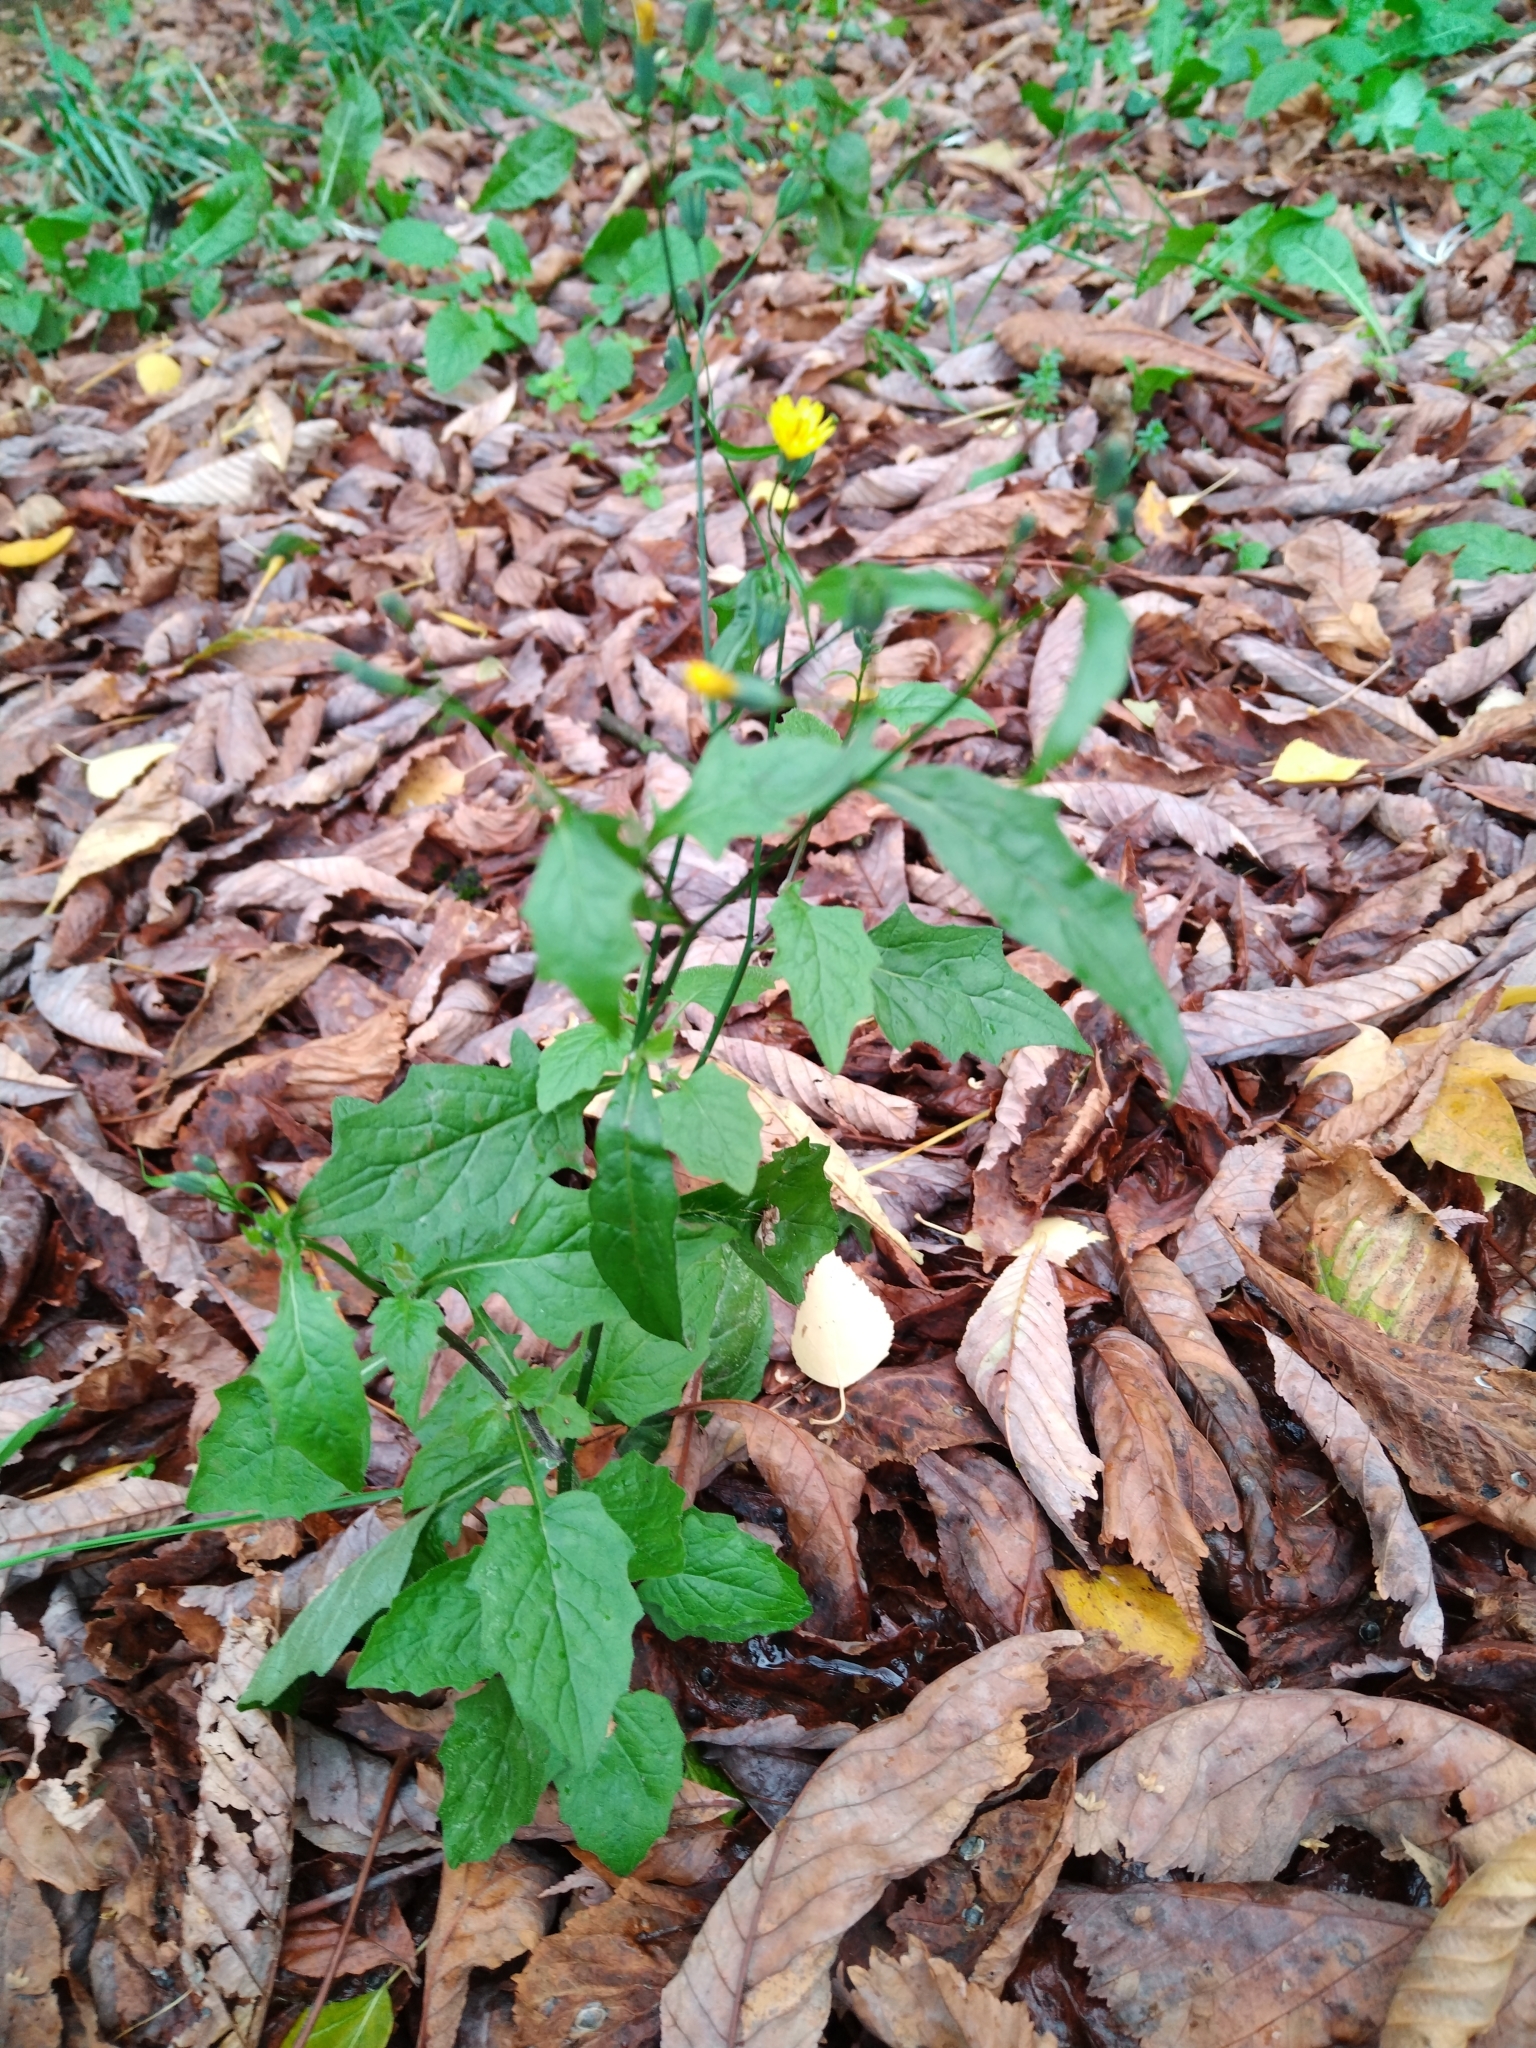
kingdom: Plantae
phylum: Tracheophyta
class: Magnoliopsida
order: Asterales
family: Asteraceae
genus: Lapsana
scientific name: Lapsana communis
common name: Nipplewort
